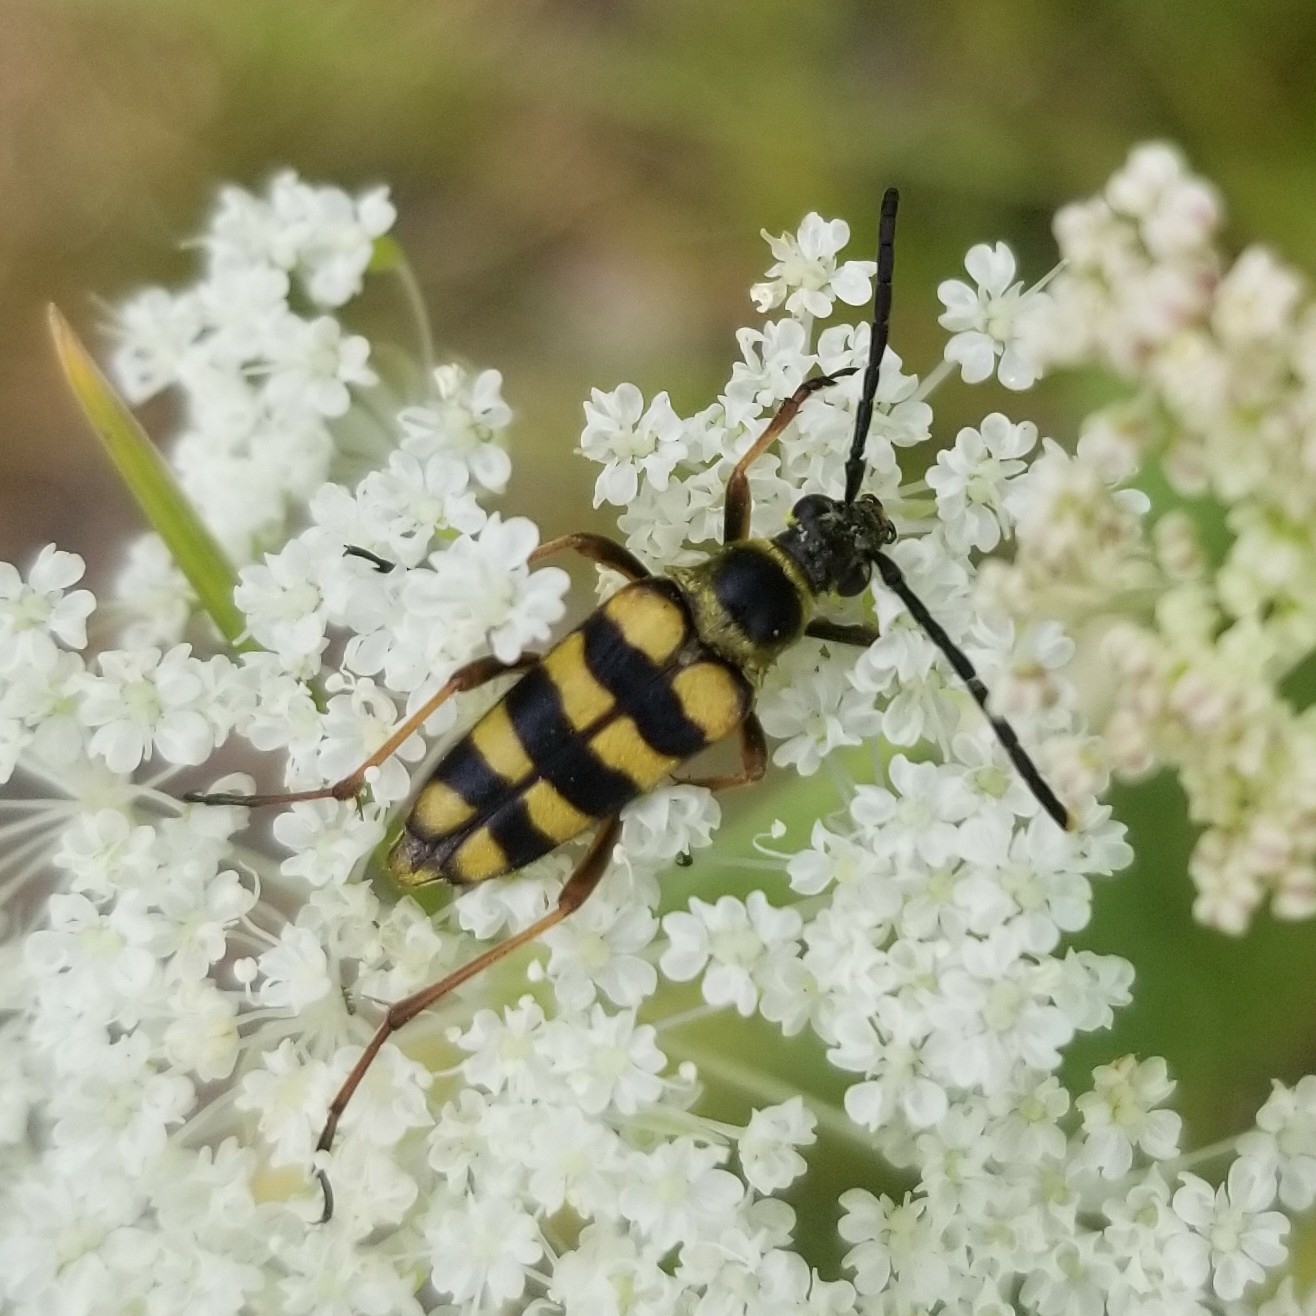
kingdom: Animalia
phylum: Arthropoda
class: Insecta
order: Coleoptera
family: Cerambycidae
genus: Stenostrophia
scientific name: Stenostrophia tribalteata
